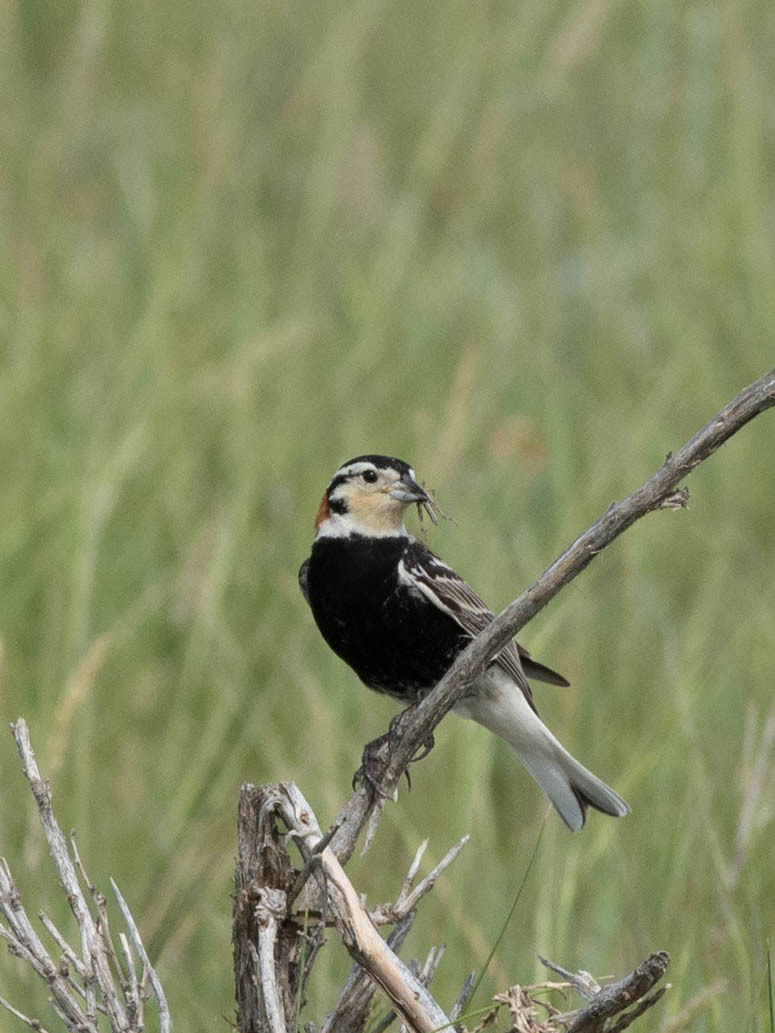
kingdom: Animalia
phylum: Chordata
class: Aves
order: Passeriformes
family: Calcariidae
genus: Calcarius
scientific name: Calcarius ornatus
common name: Chestnut-collared longspur
